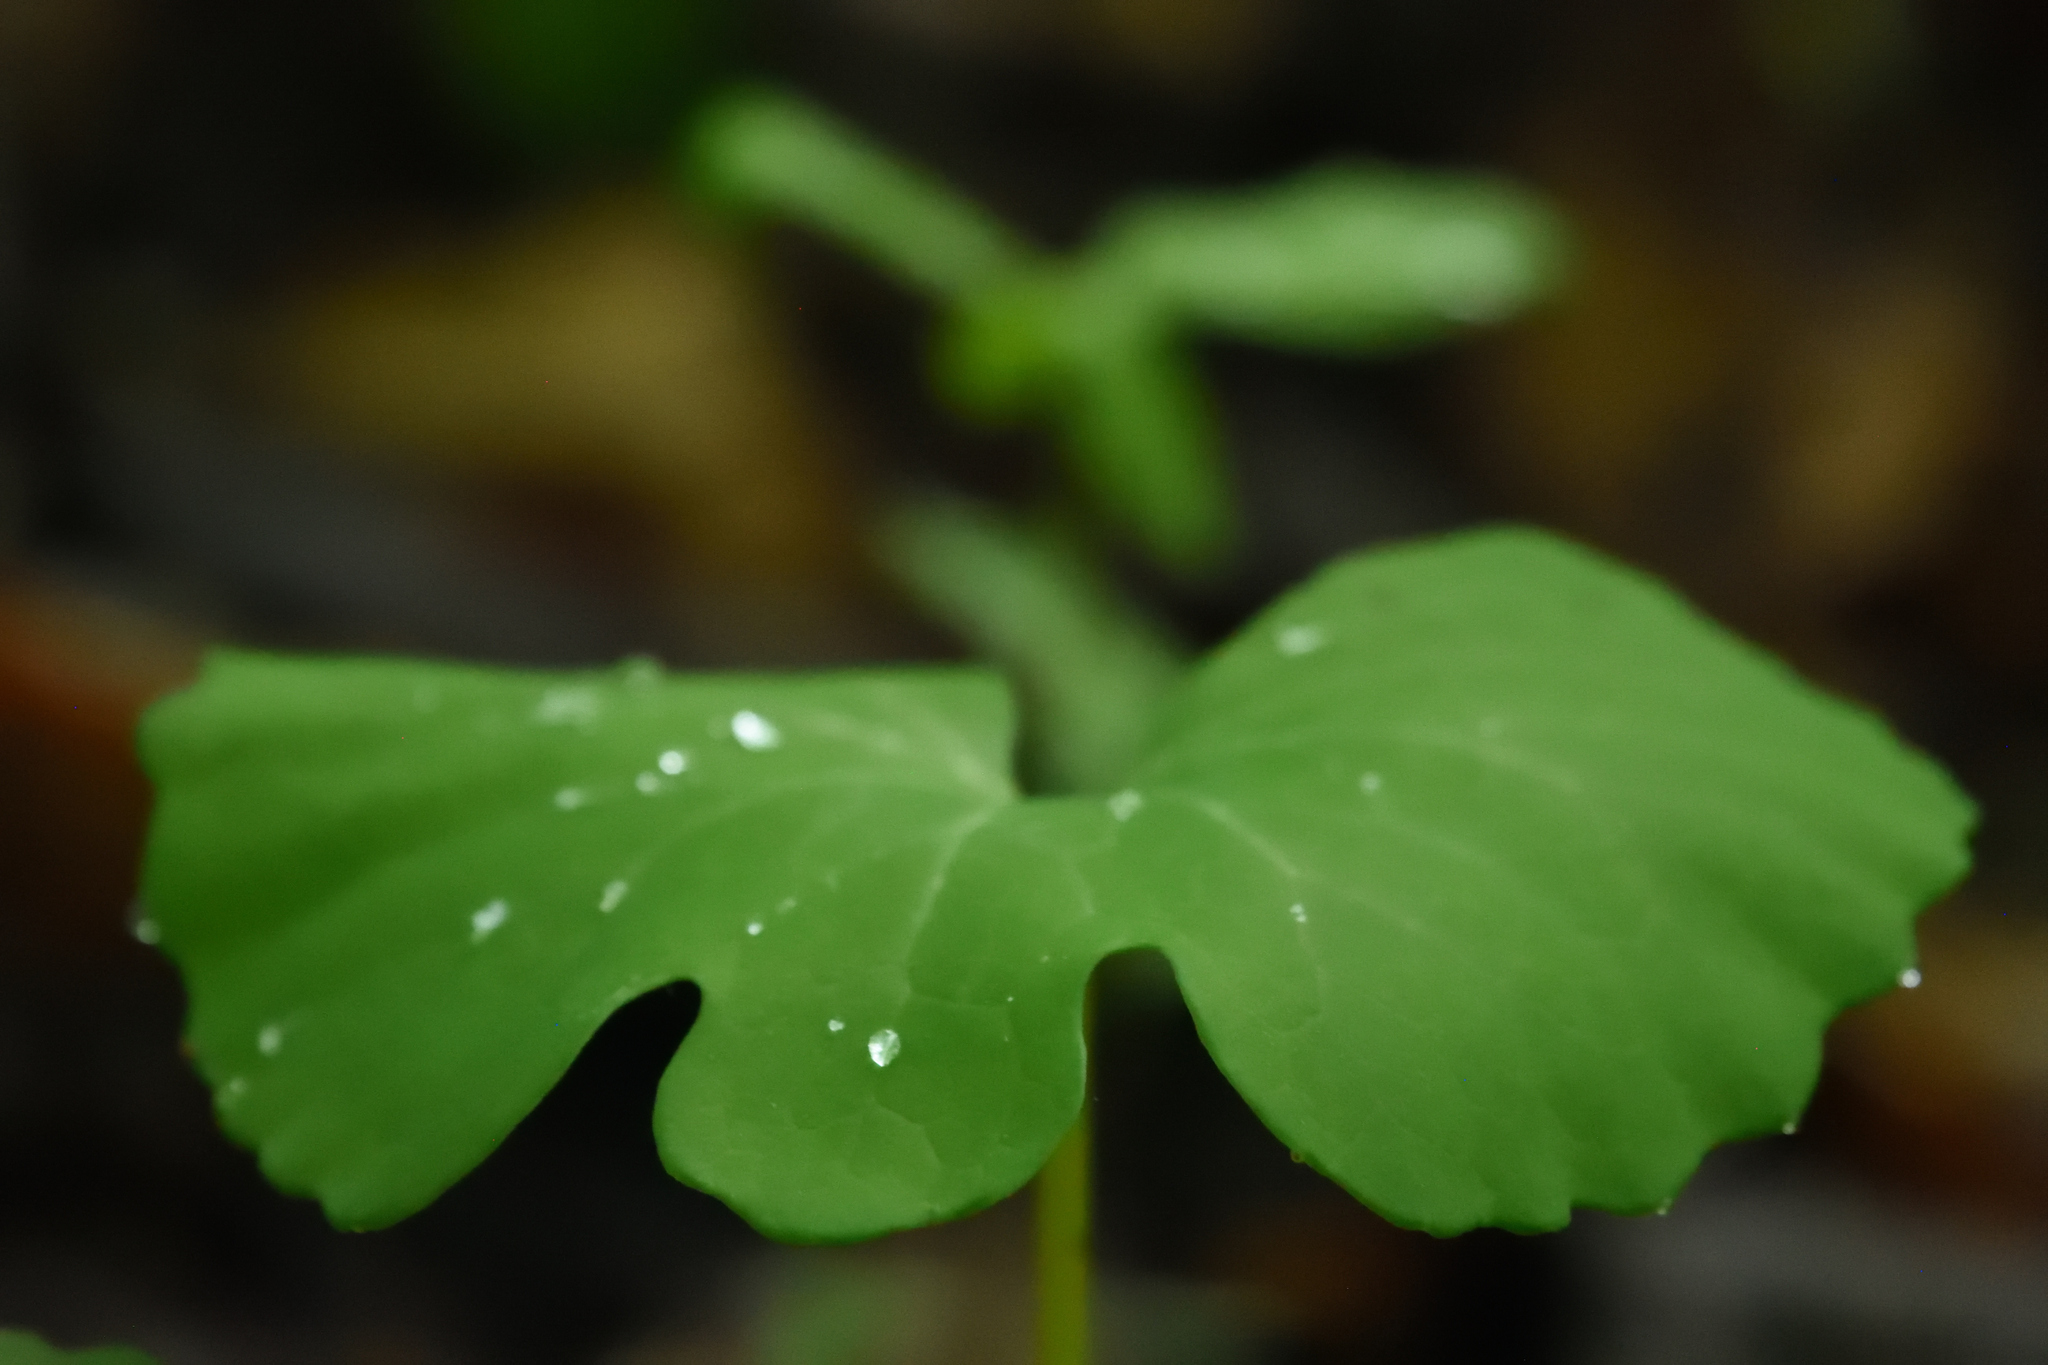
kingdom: Plantae
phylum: Tracheophyta
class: Magnoliopsida
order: Ranunculales
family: Papaveraceae
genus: Sanguinaria
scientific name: Sanguinaria canadensis
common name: Bloodroot
